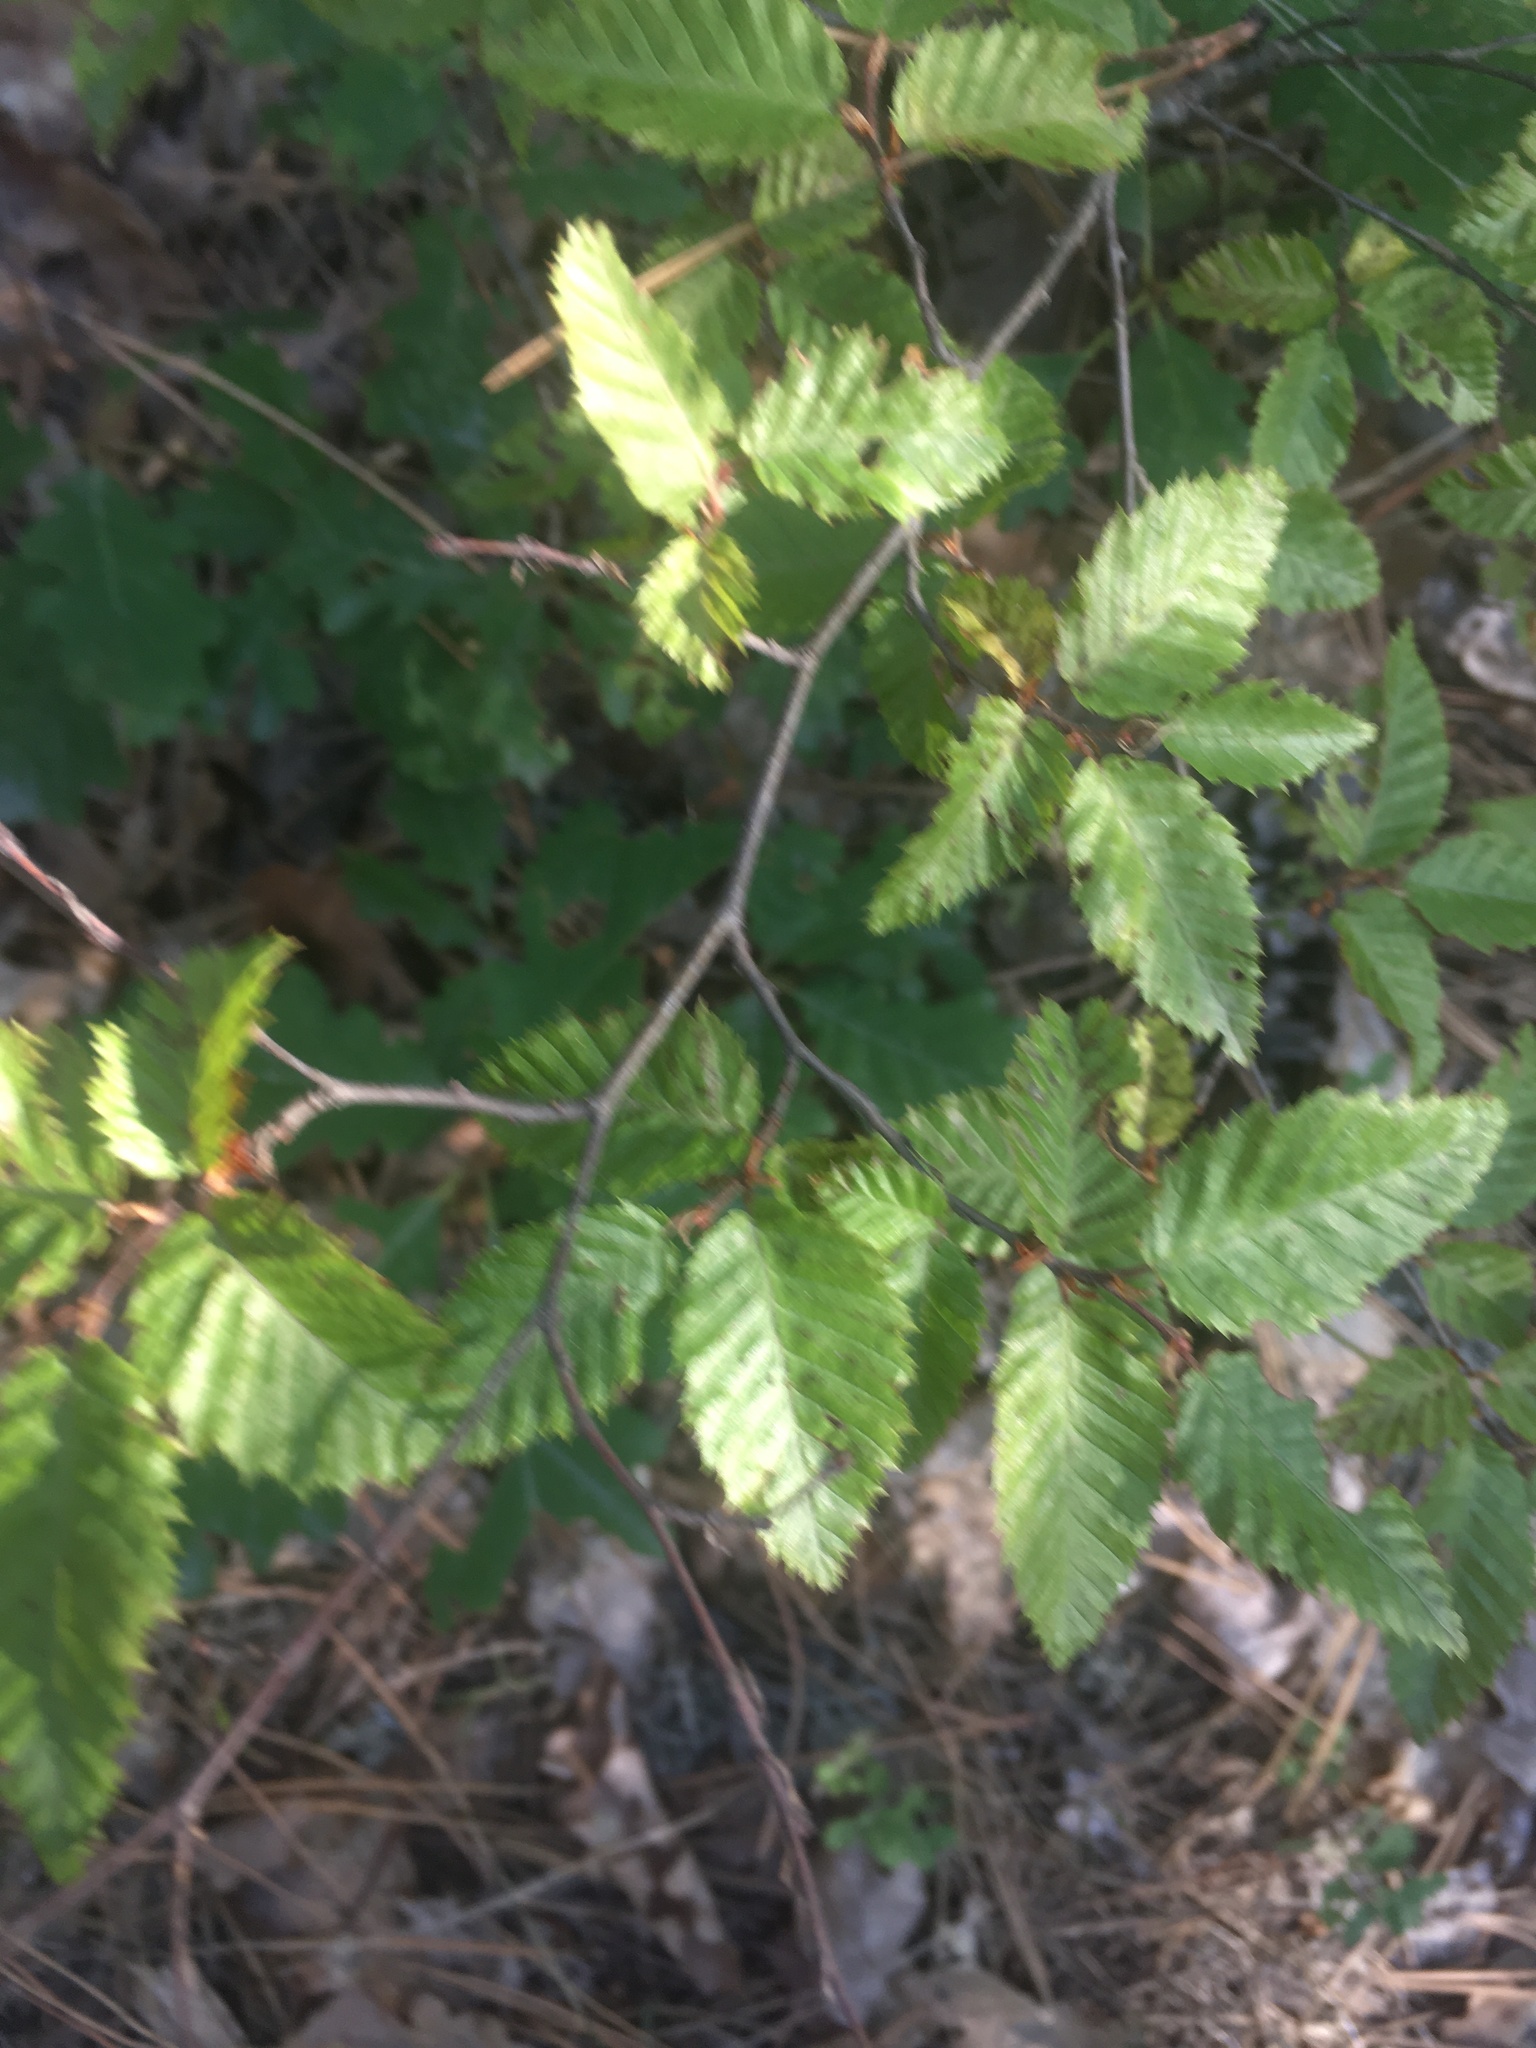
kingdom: Plantae
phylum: Tracheophyta
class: Magnoliopsida
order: Fagales
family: Betulaceae
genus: Carpinus
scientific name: Carpinus orientalis
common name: Eastern hornbeam
